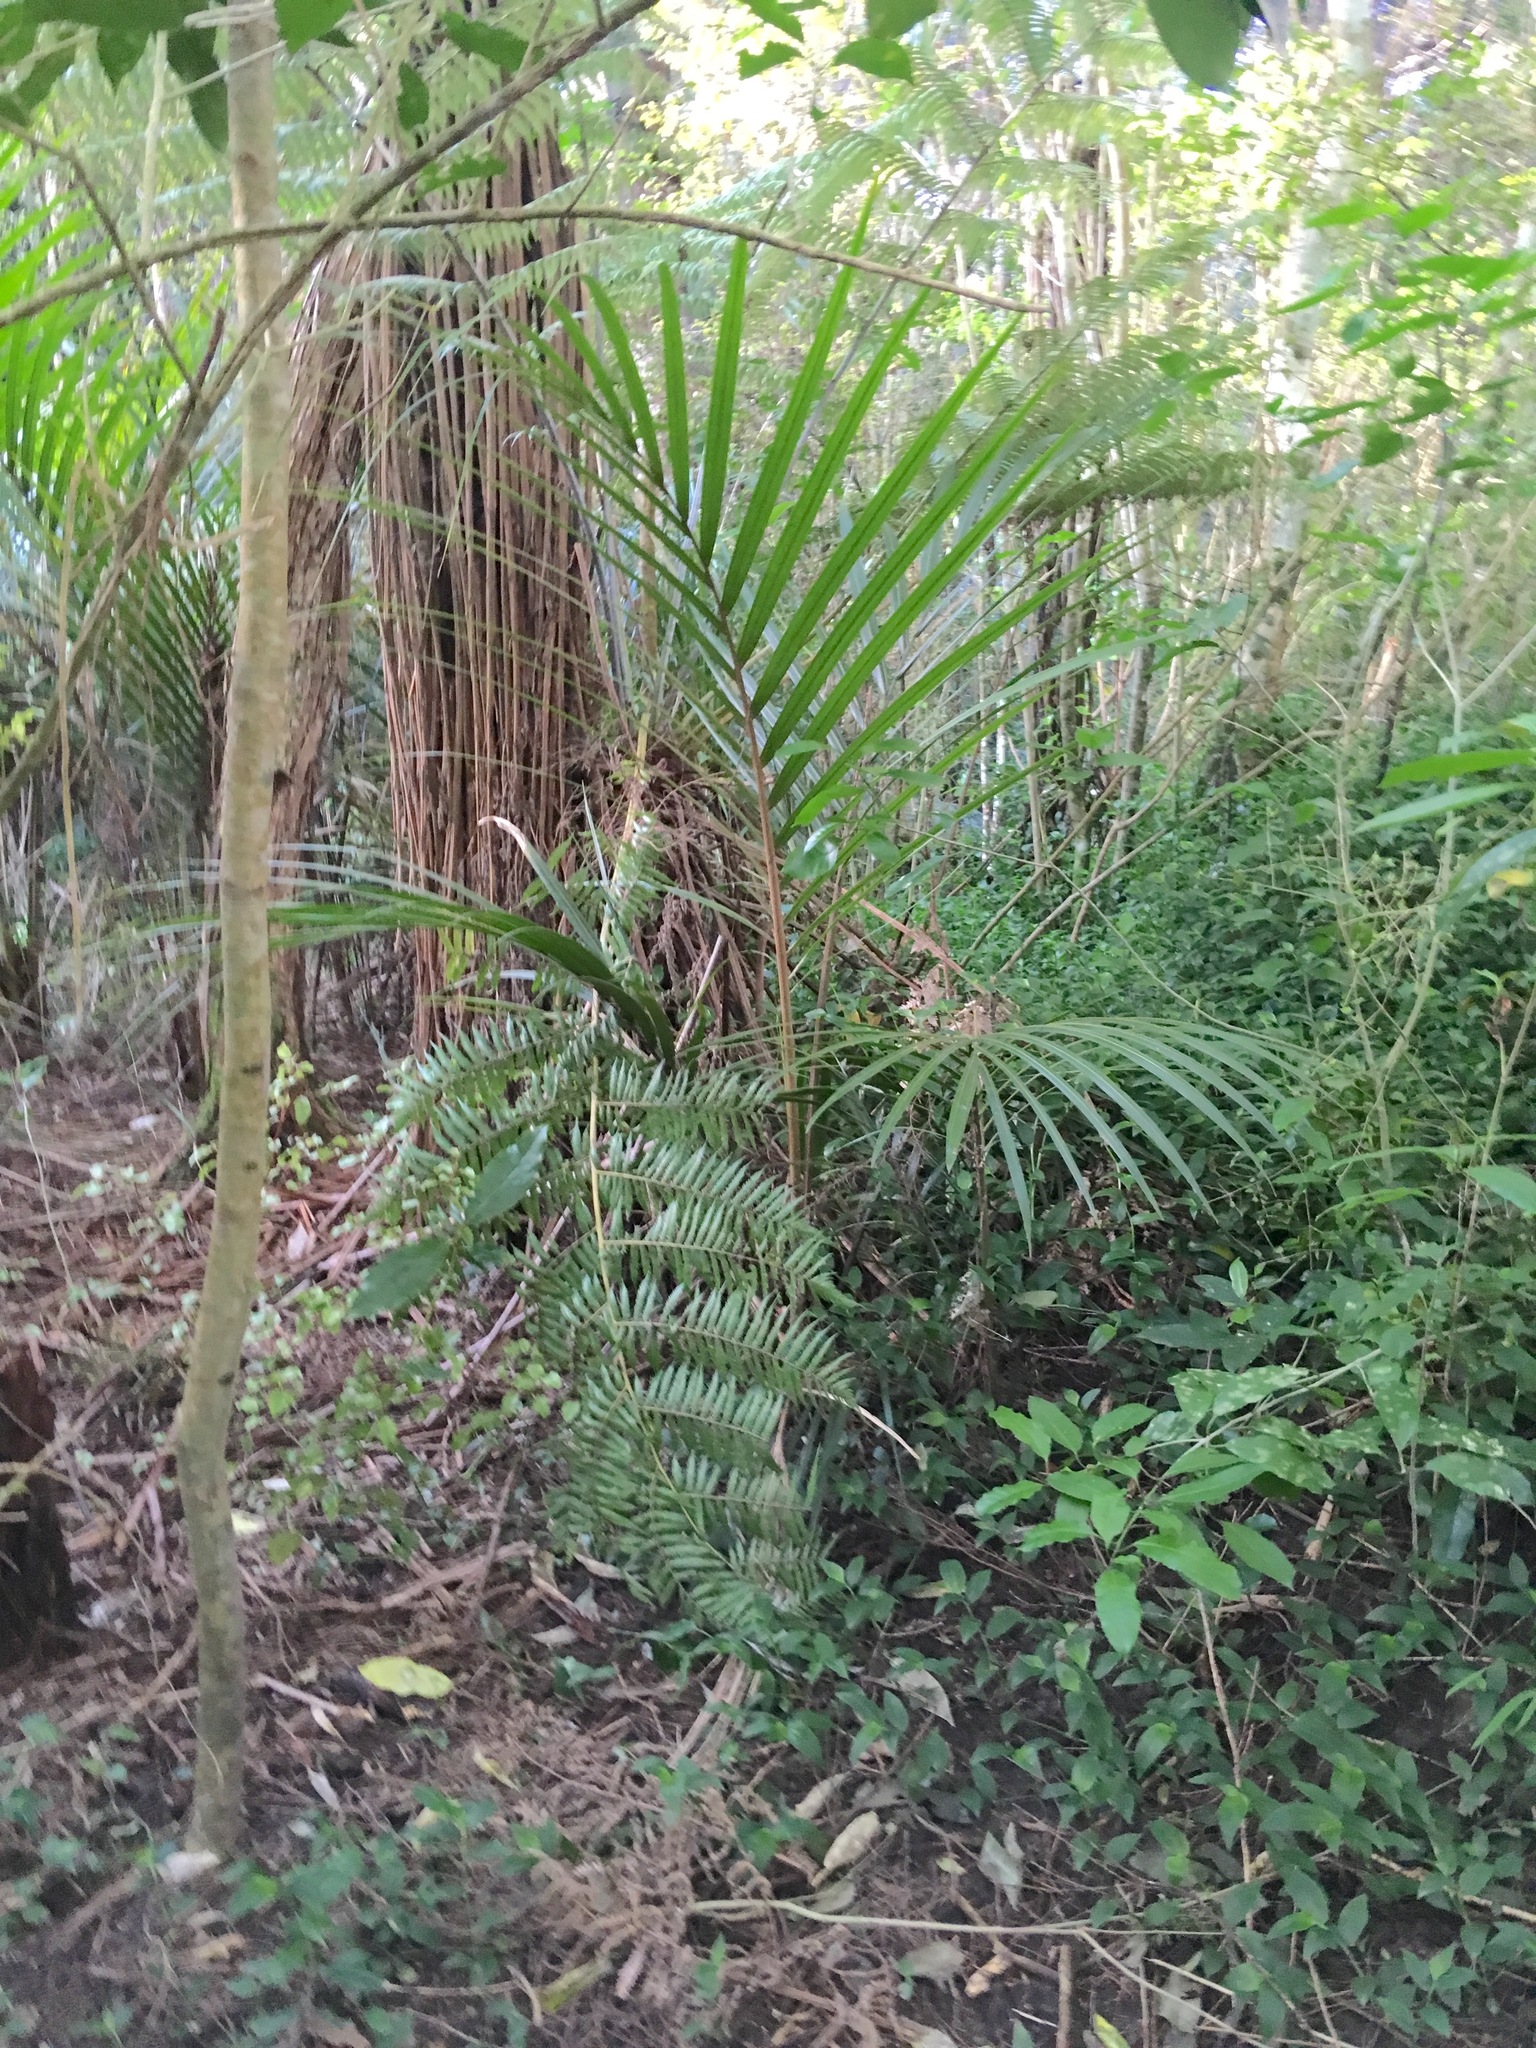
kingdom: Plantae
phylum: Tracheophyta
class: Liliopsida
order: Arecales
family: Arecaceae
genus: Rhopalostylis
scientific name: Rhopalostylis sapida
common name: Feather-duster palm
